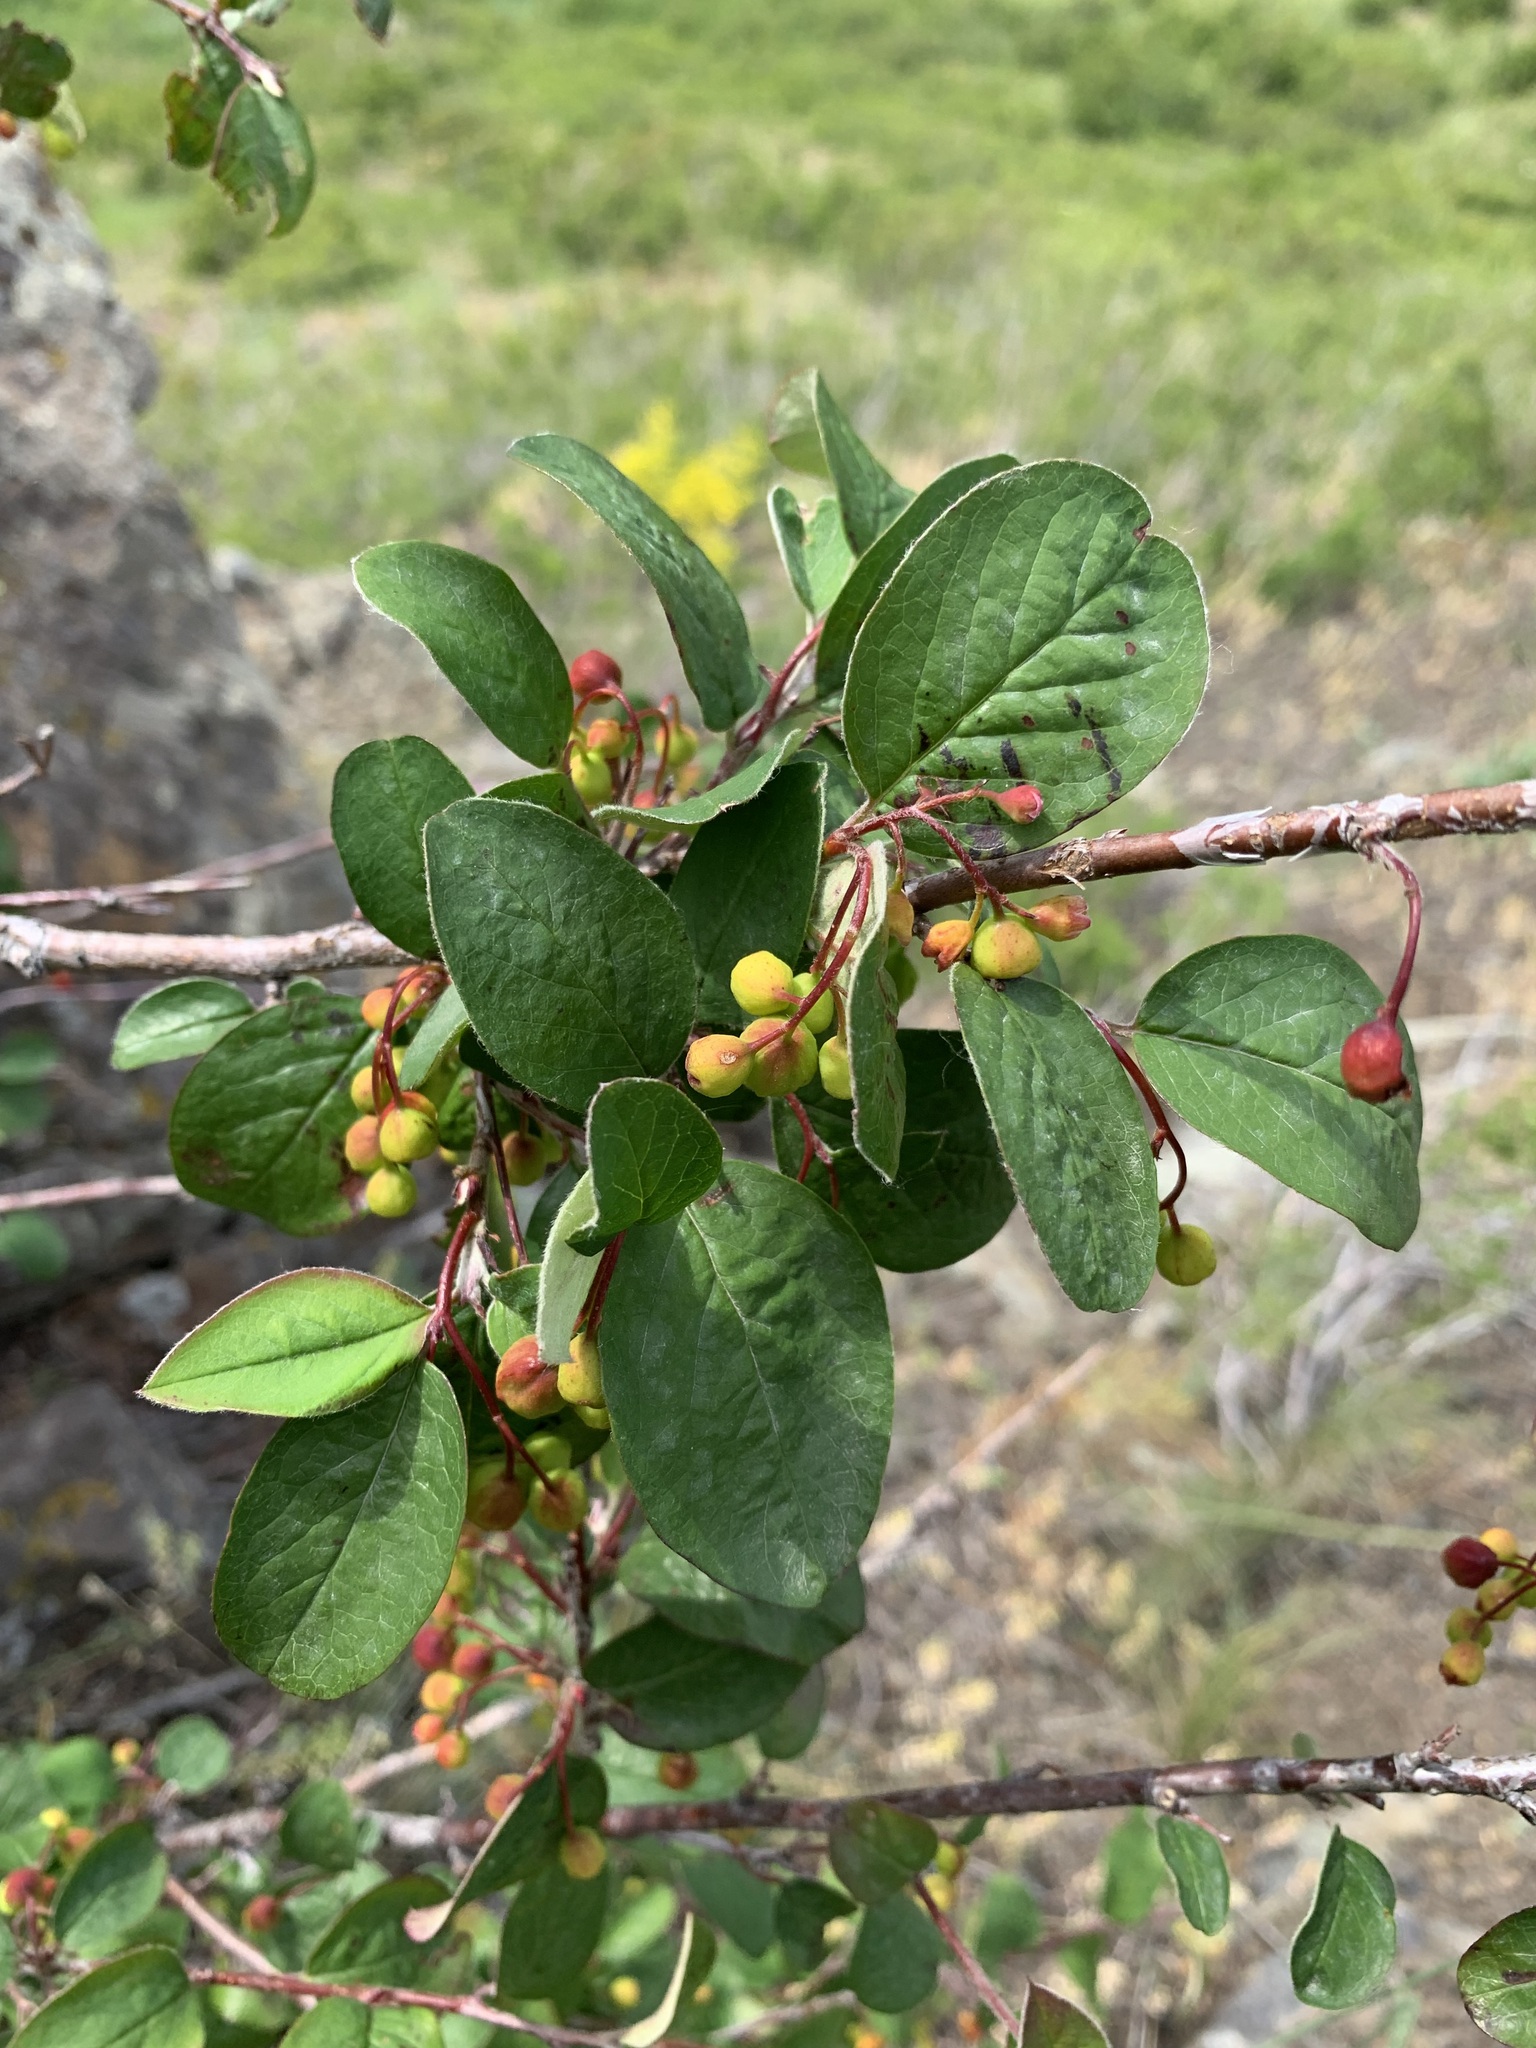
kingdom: Plantae
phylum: Tracheophyta
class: Magnoliopsida
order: Rosales
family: Rosaceae
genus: Cotoneaster
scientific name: Cotoneaster melanocarpus
